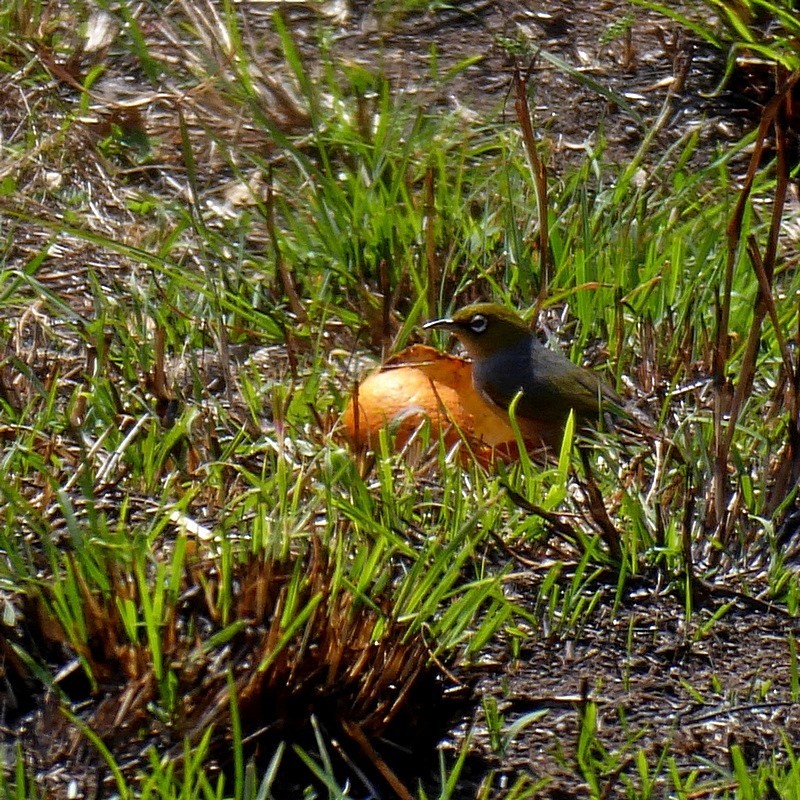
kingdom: Animalia
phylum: Chordata
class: Aves
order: Passeriformes
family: Zosteropidae
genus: Zosterops
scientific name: Zosterops lateralis
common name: Silvereye
